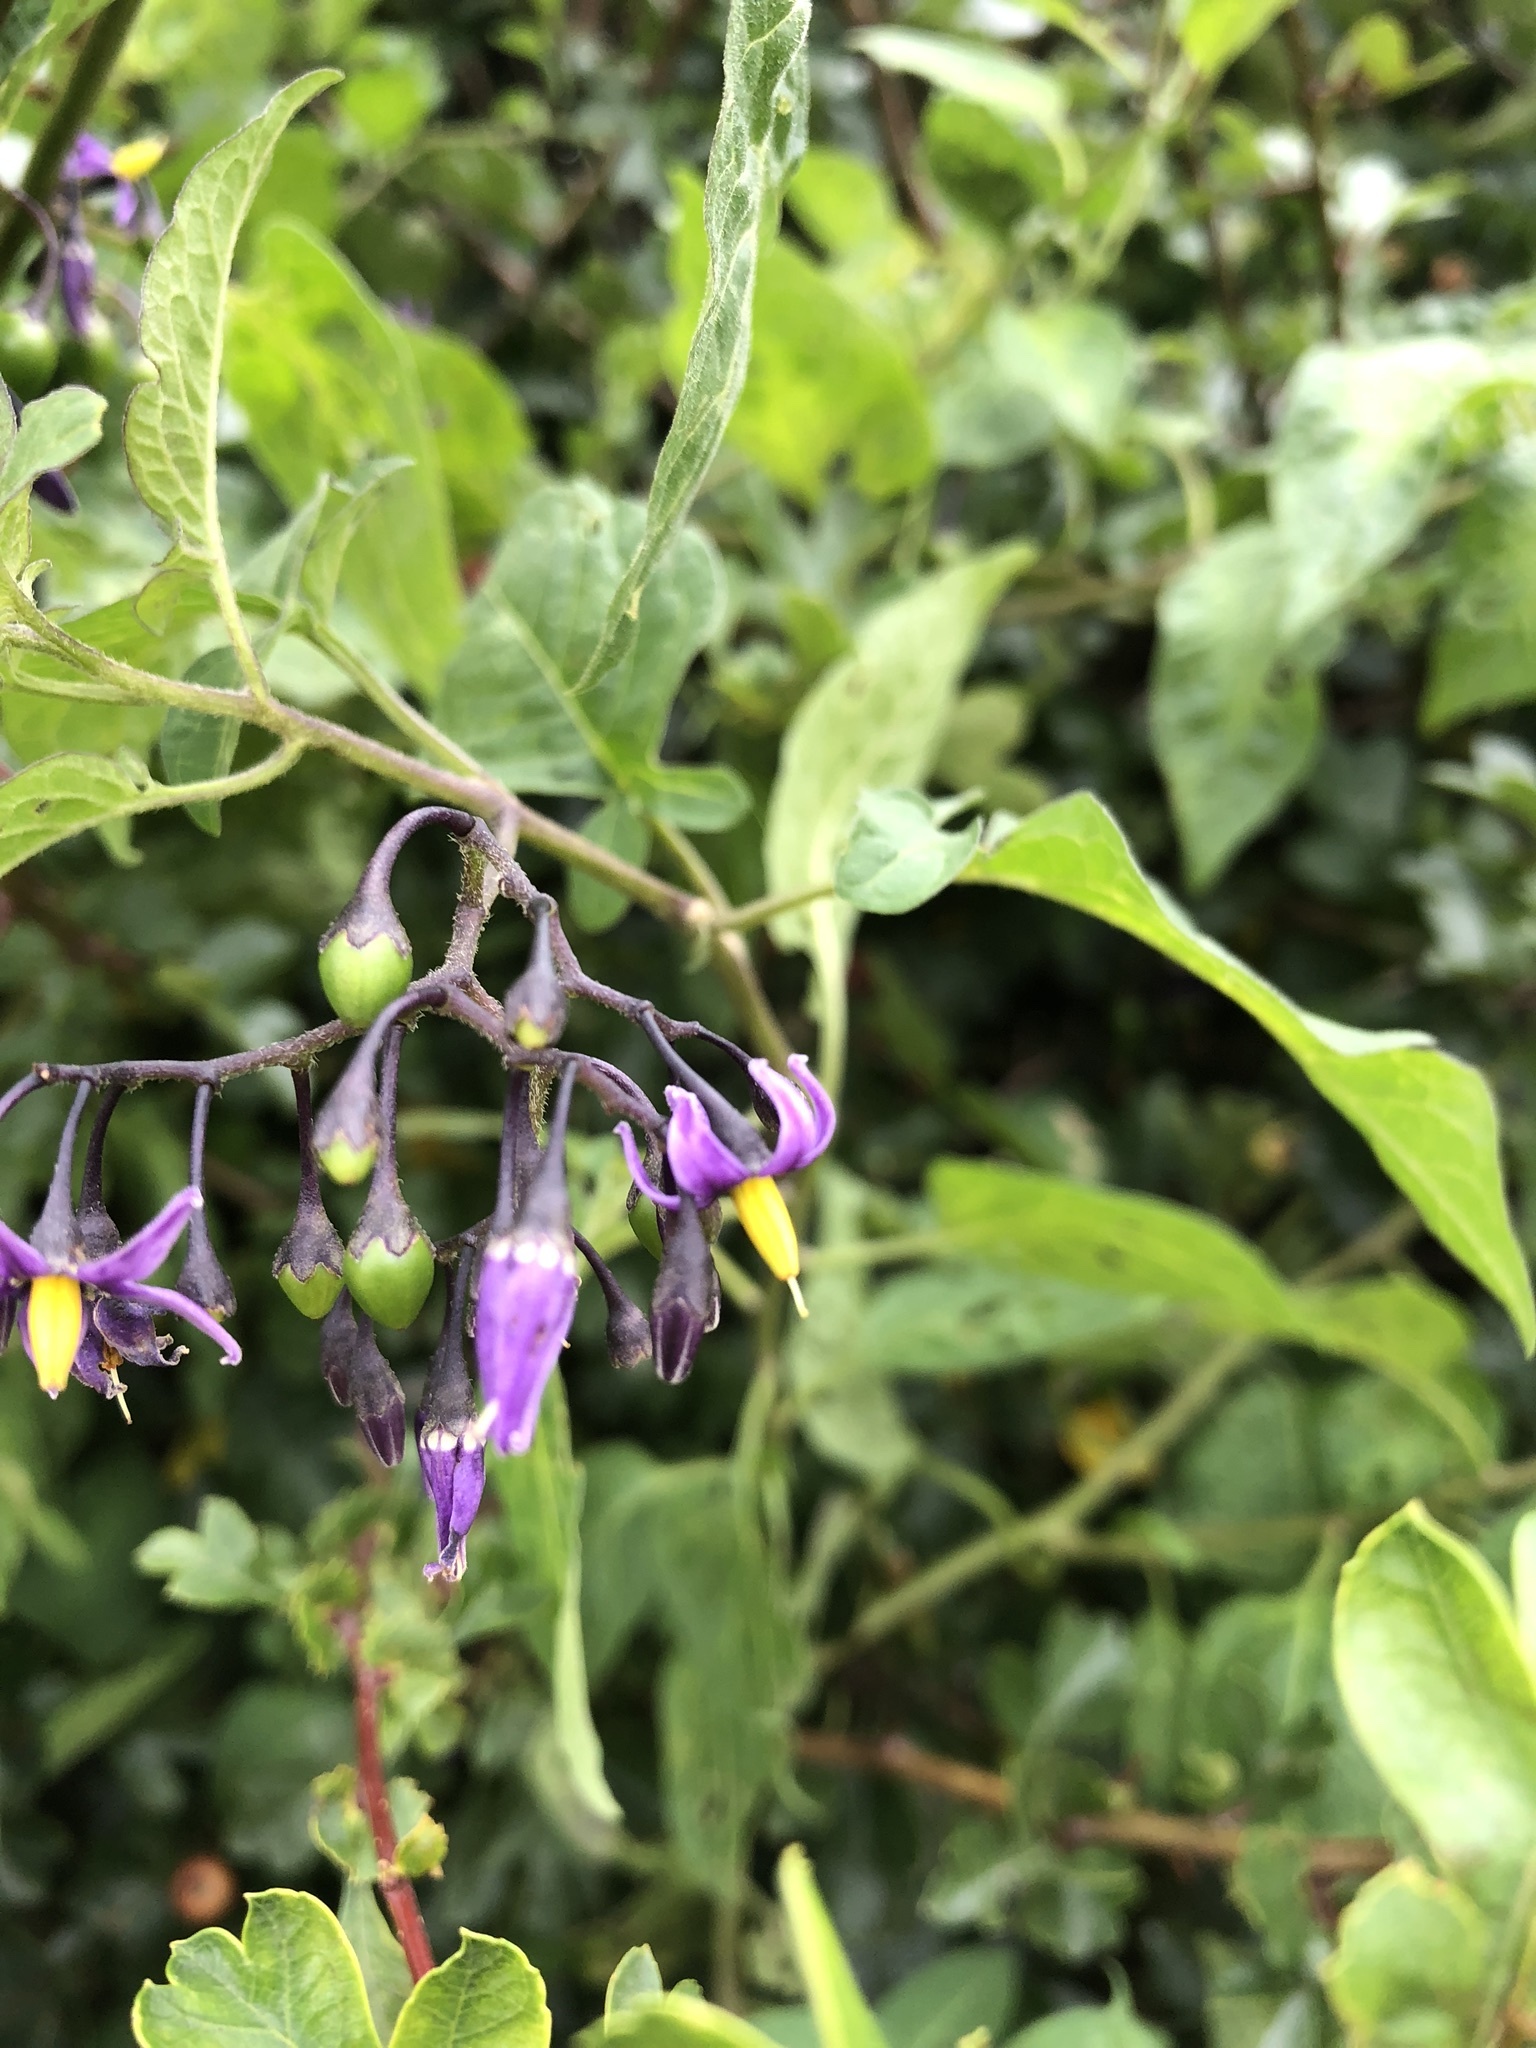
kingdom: Plantae
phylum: Tracheophyta
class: Magnoliopsida
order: Solanales
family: Solanaceae
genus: Solanum
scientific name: Solanum dulcamara
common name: Climbing nightshade
